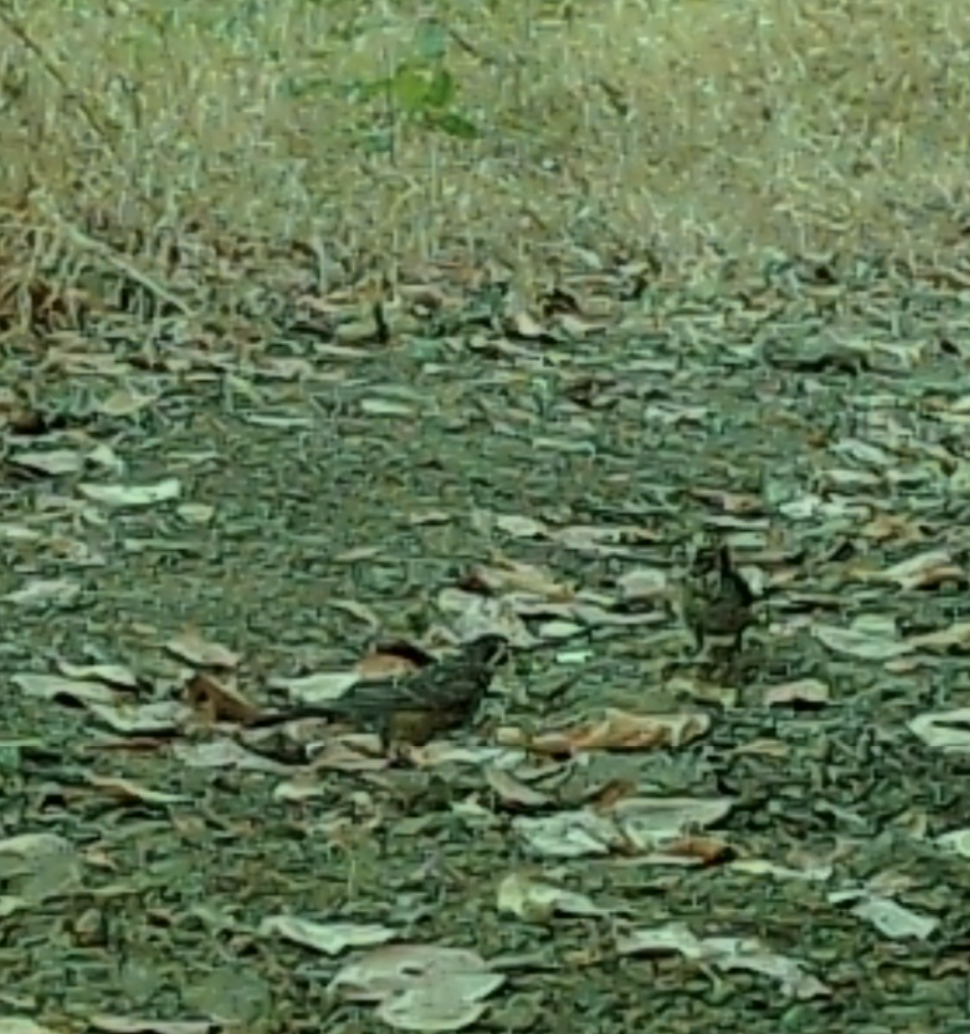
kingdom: Animalia
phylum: Chordata
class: Aves
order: Passeriformes
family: Turdidae
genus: Turdus
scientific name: Turdus migratorius
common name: American robin
